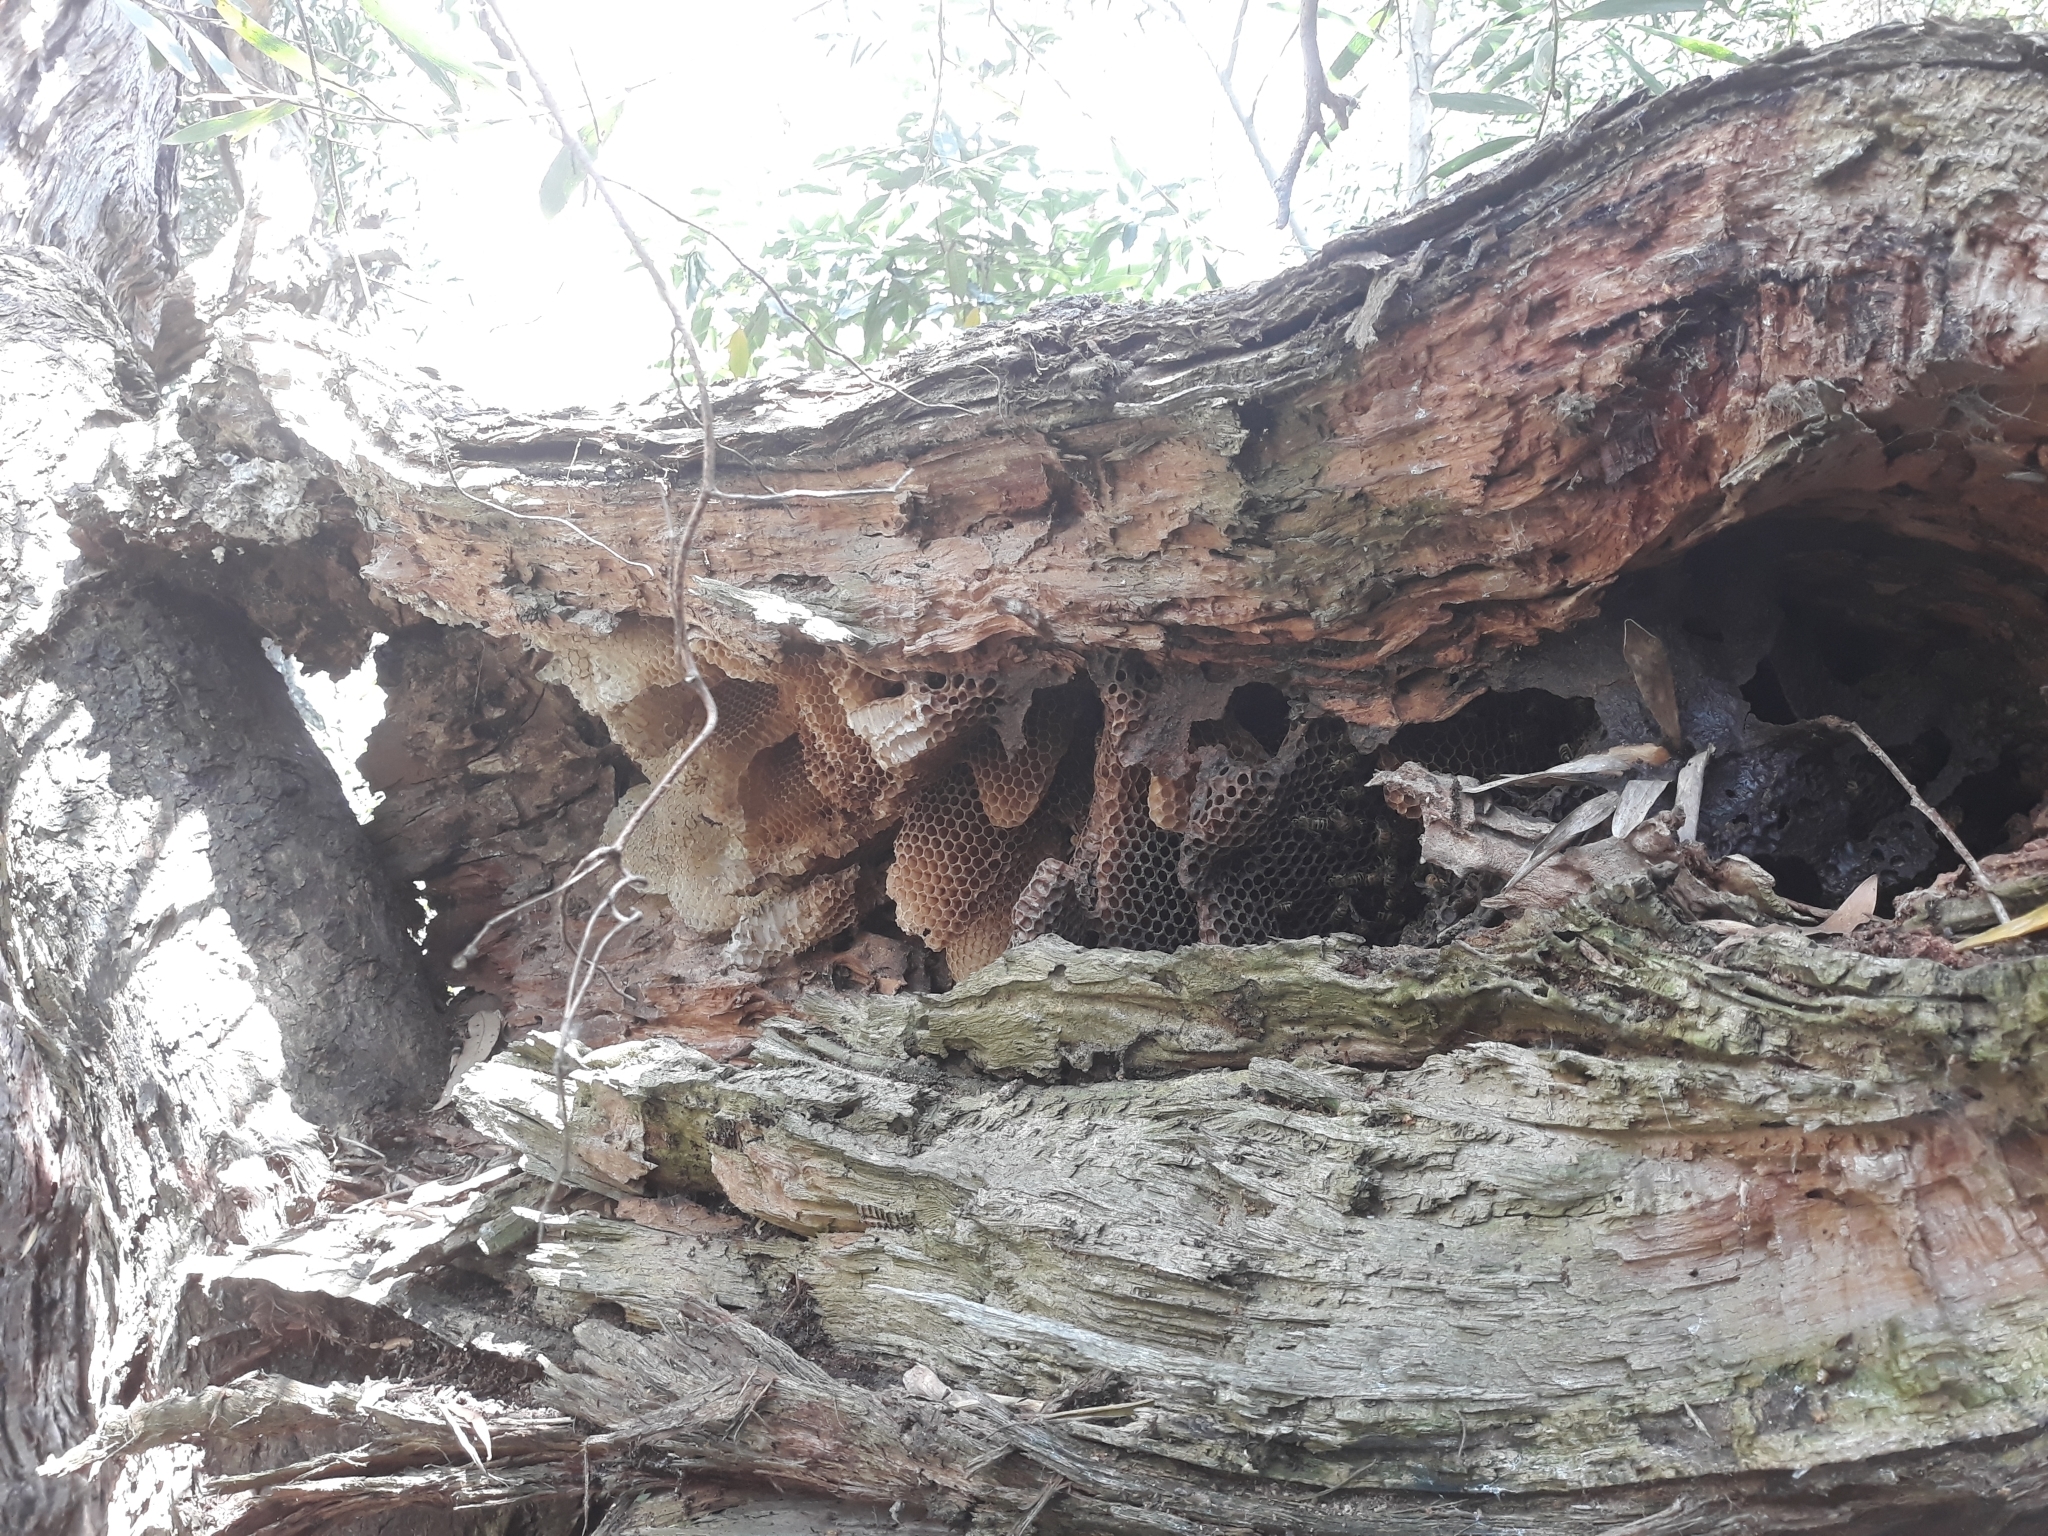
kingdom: Animalia
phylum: Arthropoda
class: Insecta
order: Hymenoptera
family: Apidae
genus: Apis
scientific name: Apis mellifera
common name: Honey bee
